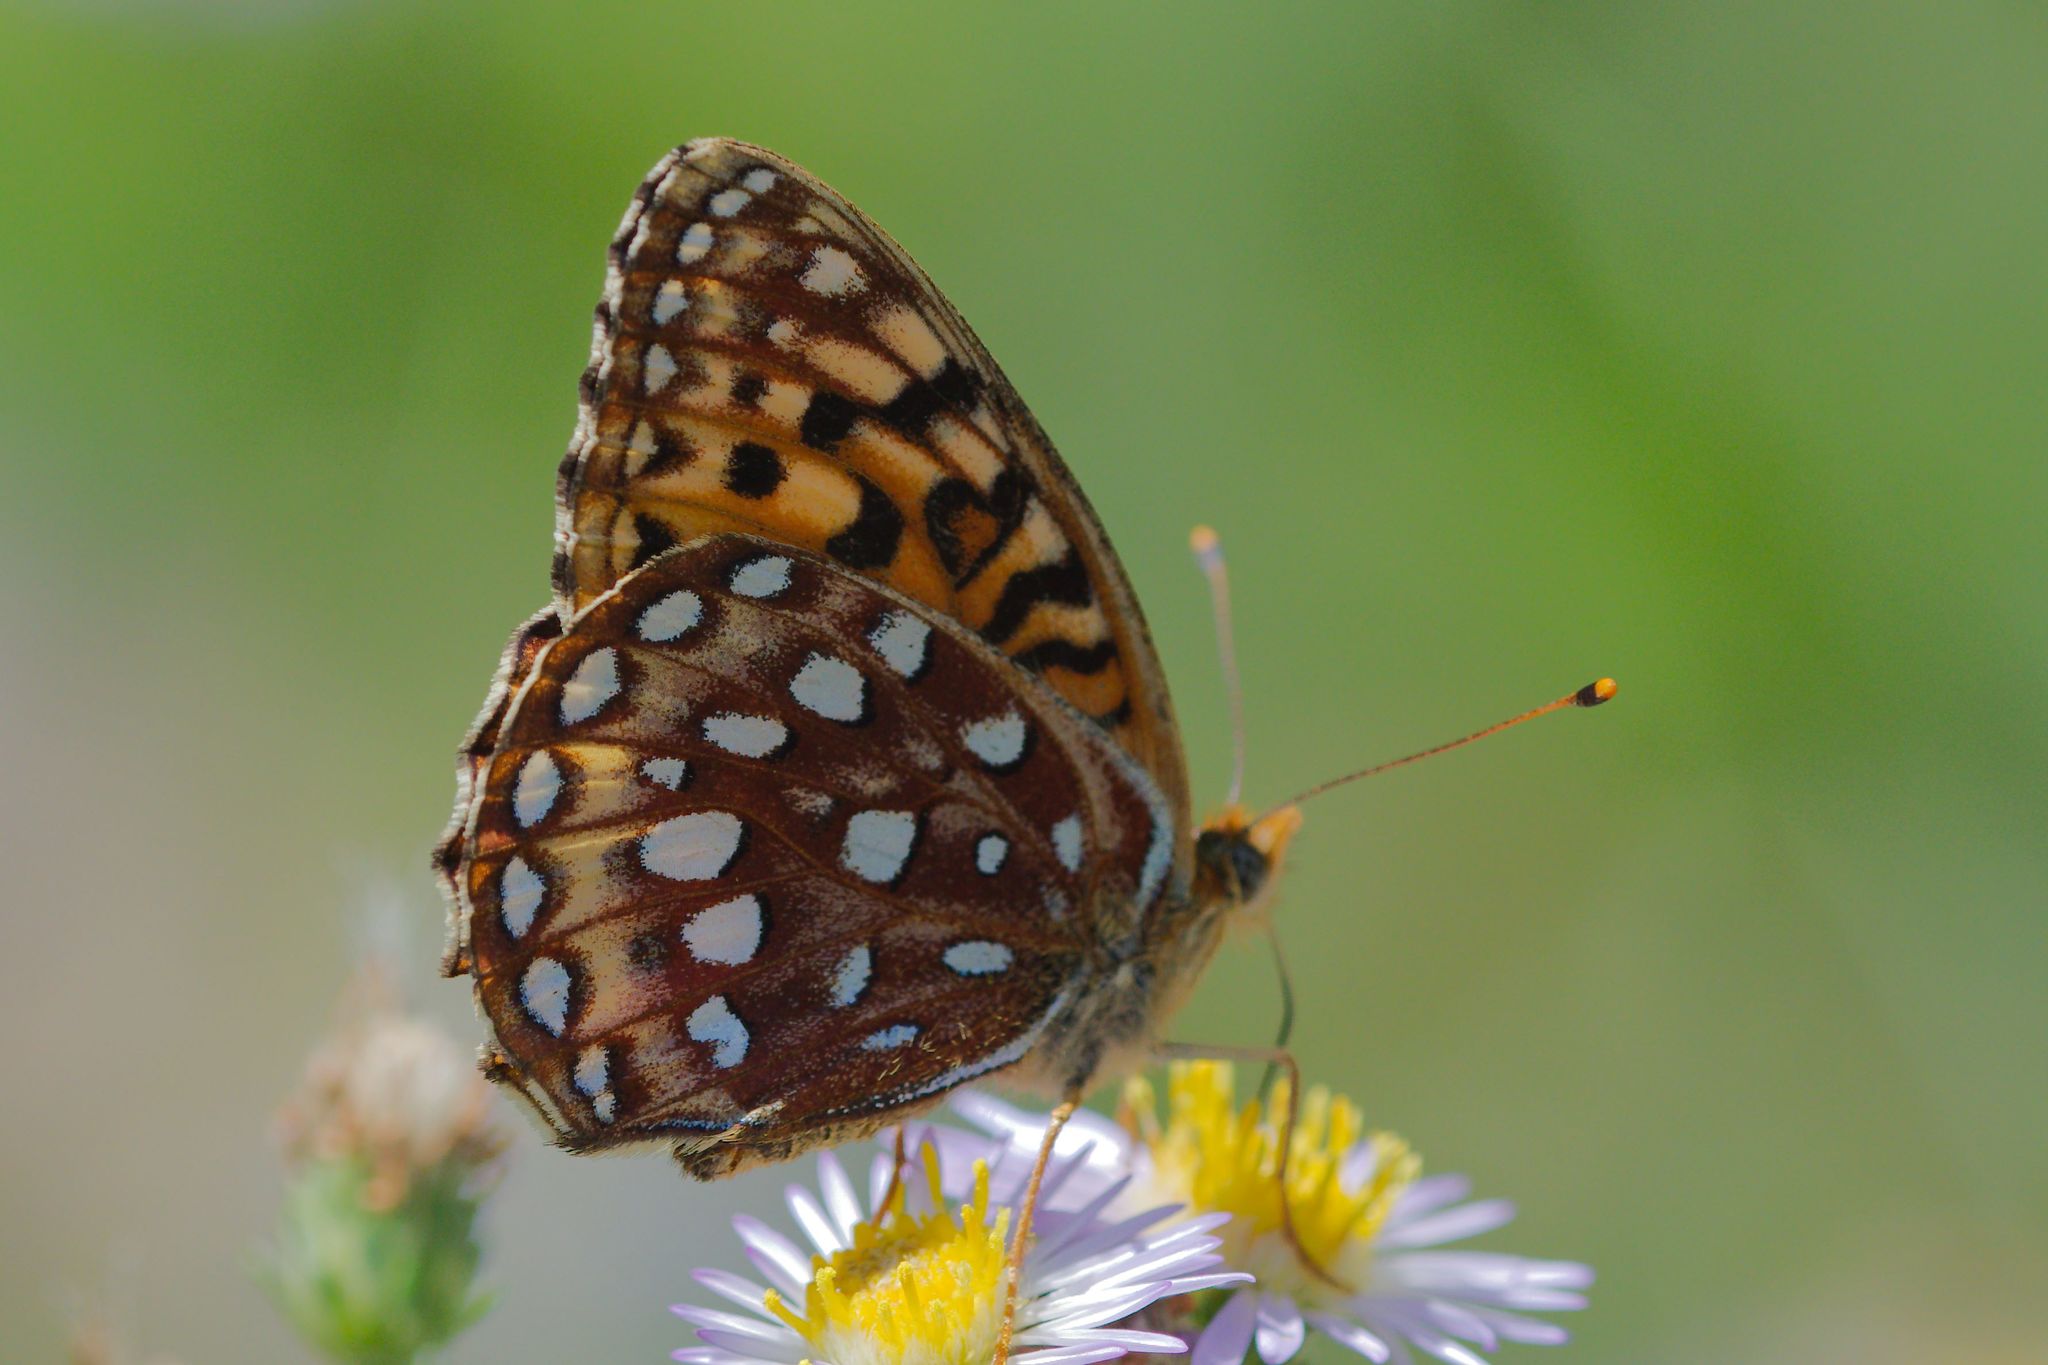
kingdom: Animalia
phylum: Arthropoda
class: Insecta
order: Lepidoptera
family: Nymphalidae
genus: Speyeria
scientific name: Speyeria atlantis
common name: Atlantis fritillary
